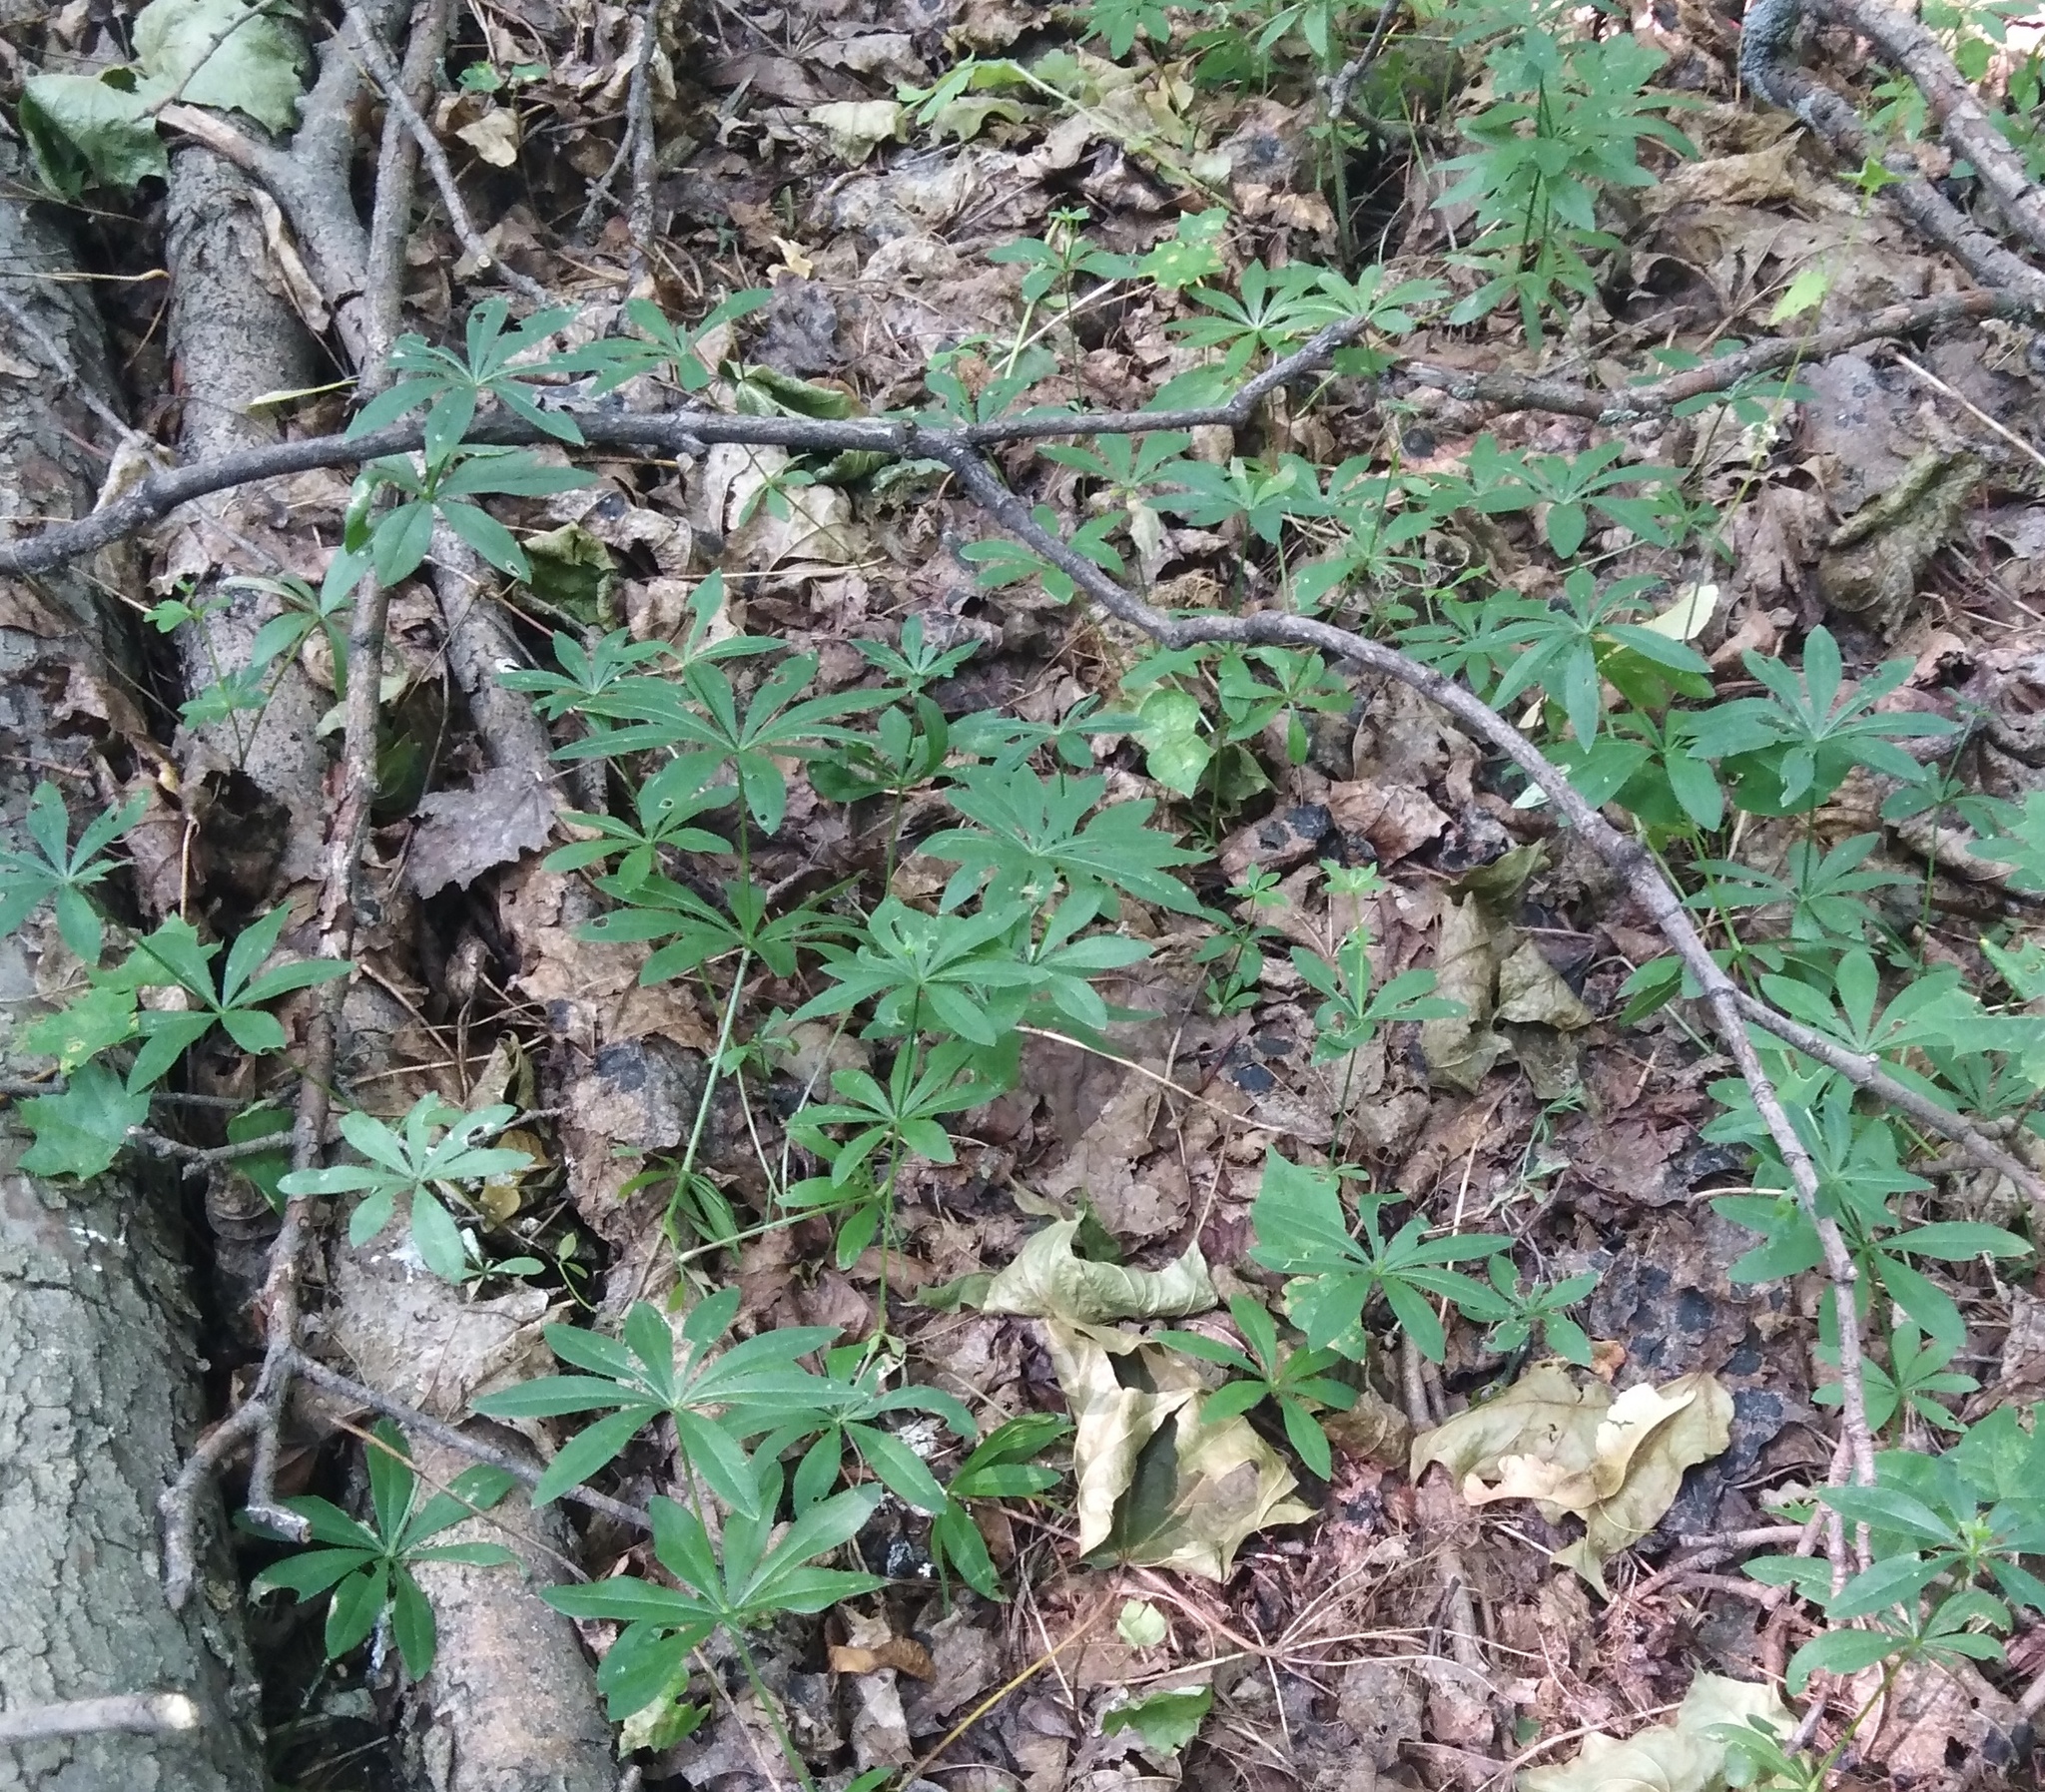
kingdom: Plantae
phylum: Tracheophyta
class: Magnoliopsida
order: Gentianales
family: Rubiaceae
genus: Galium
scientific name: Galium odoratum
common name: Sweet woodruff
